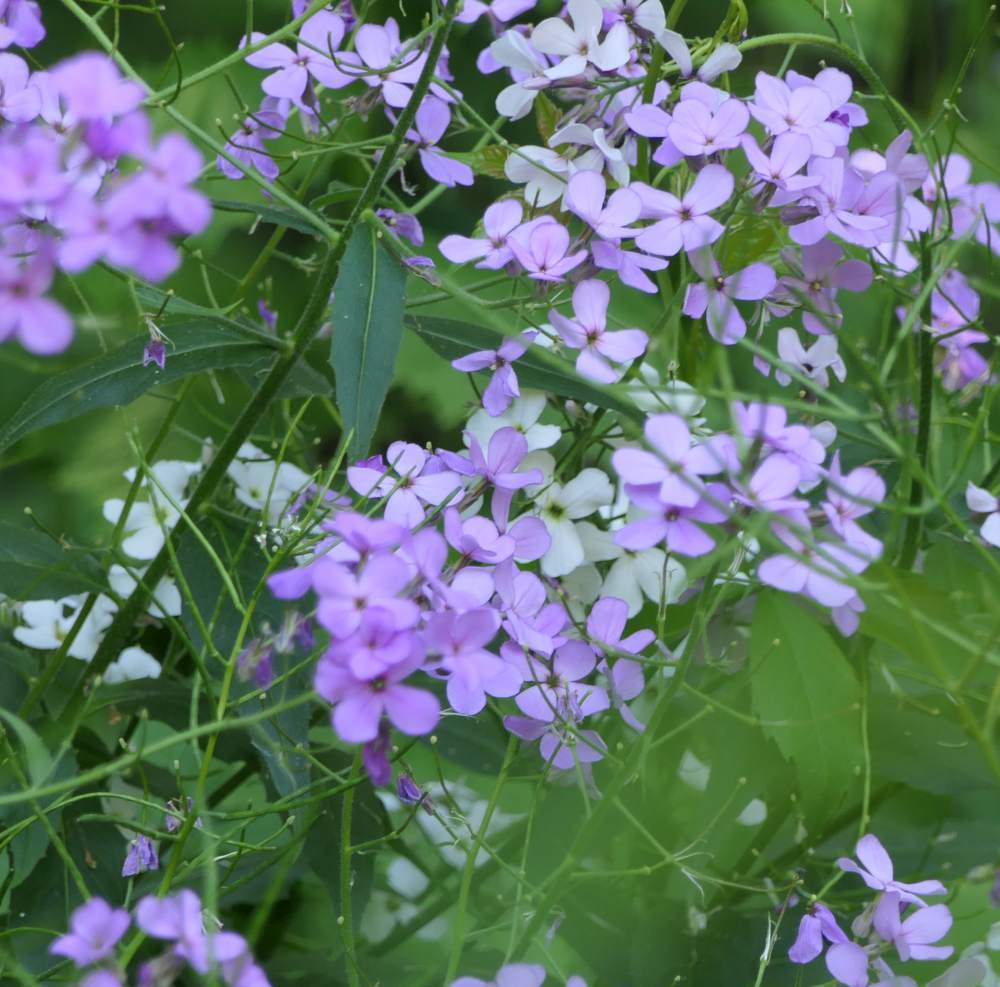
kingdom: Plantae
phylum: Tracheophyta
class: Magnoliopsida
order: Brassicales
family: Brassicaceae
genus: Hesperis
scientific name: Hesperis matronalis
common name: Dame's-violet
